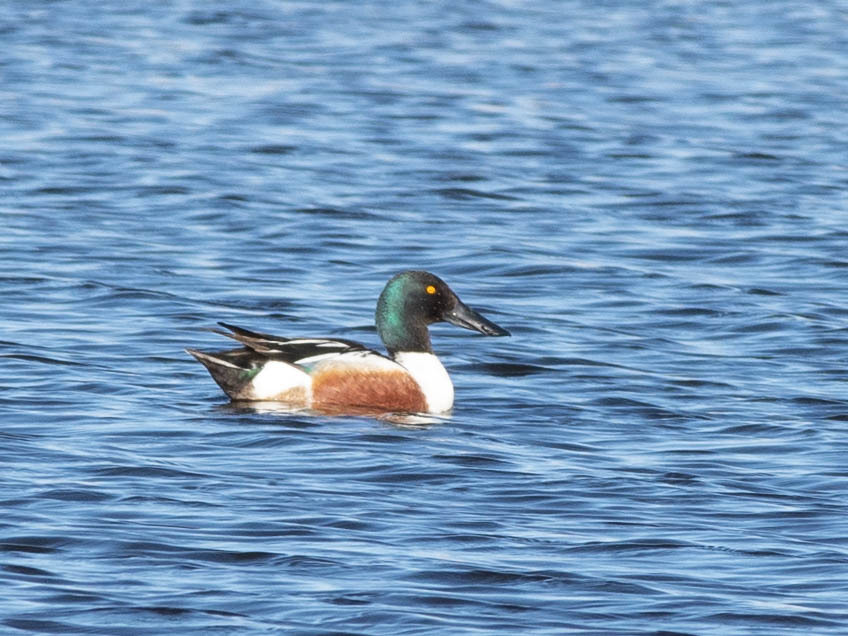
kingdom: Animalia
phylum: Chordata
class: Aves
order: Anseriformes
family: Anatidae
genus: Spatula
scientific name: Spatula clypeata
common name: Northern shoveler
